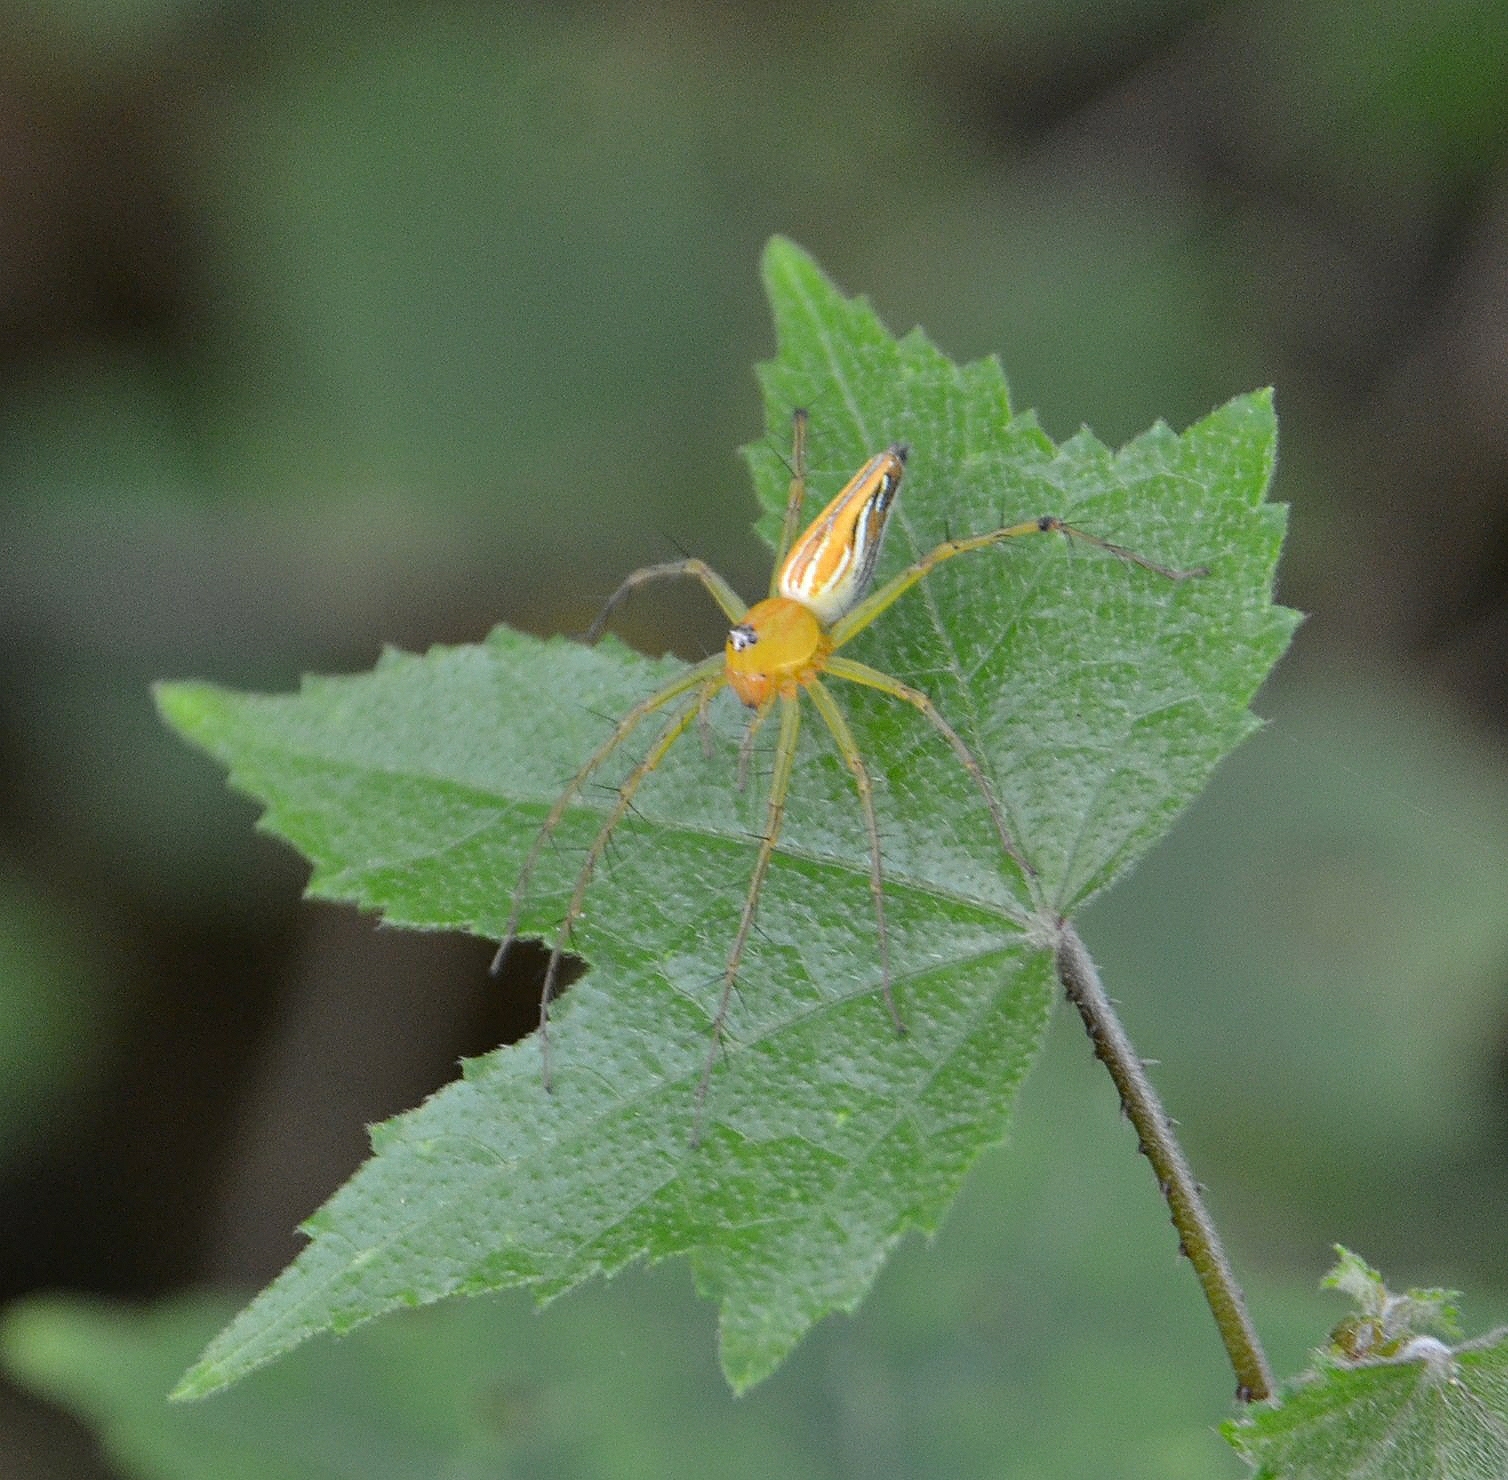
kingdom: Animalia
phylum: Arthropoda
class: Arachnida
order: Araneae
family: Oxyopidae
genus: Oxyopes
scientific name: Oxyopes macilentus
